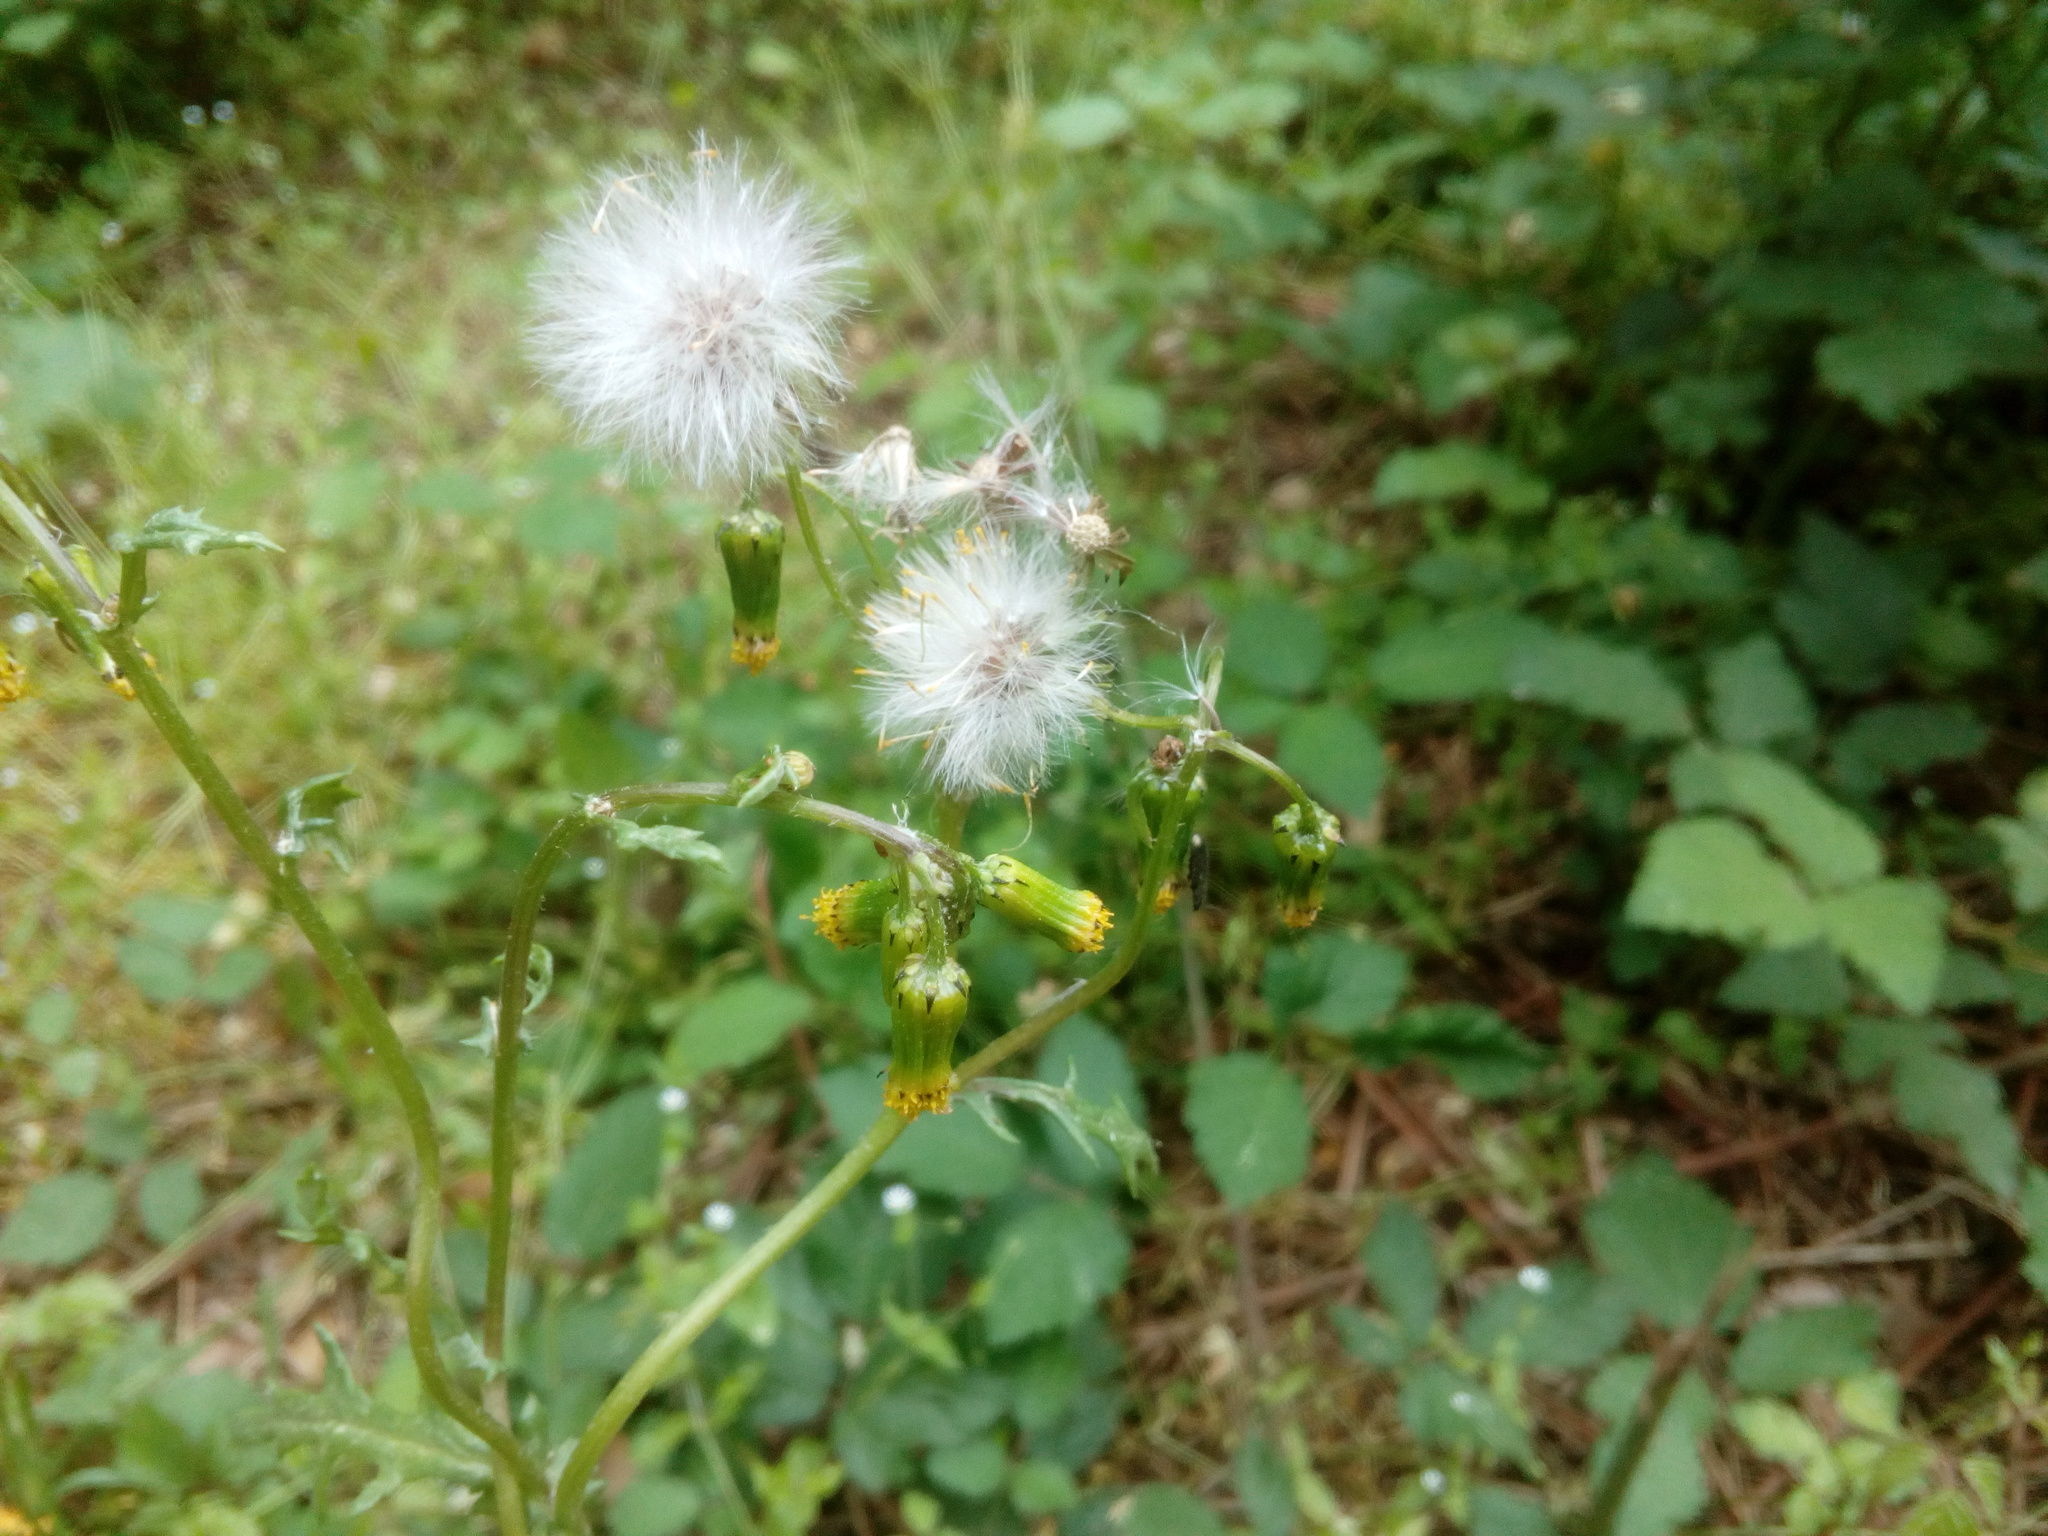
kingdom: Plantae
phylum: Tracheophyta
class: Magnoliopsida
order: Asterales
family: Asteraceae
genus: Senecio
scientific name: Senecio vulgaris
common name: Old-man-in-the-spring
